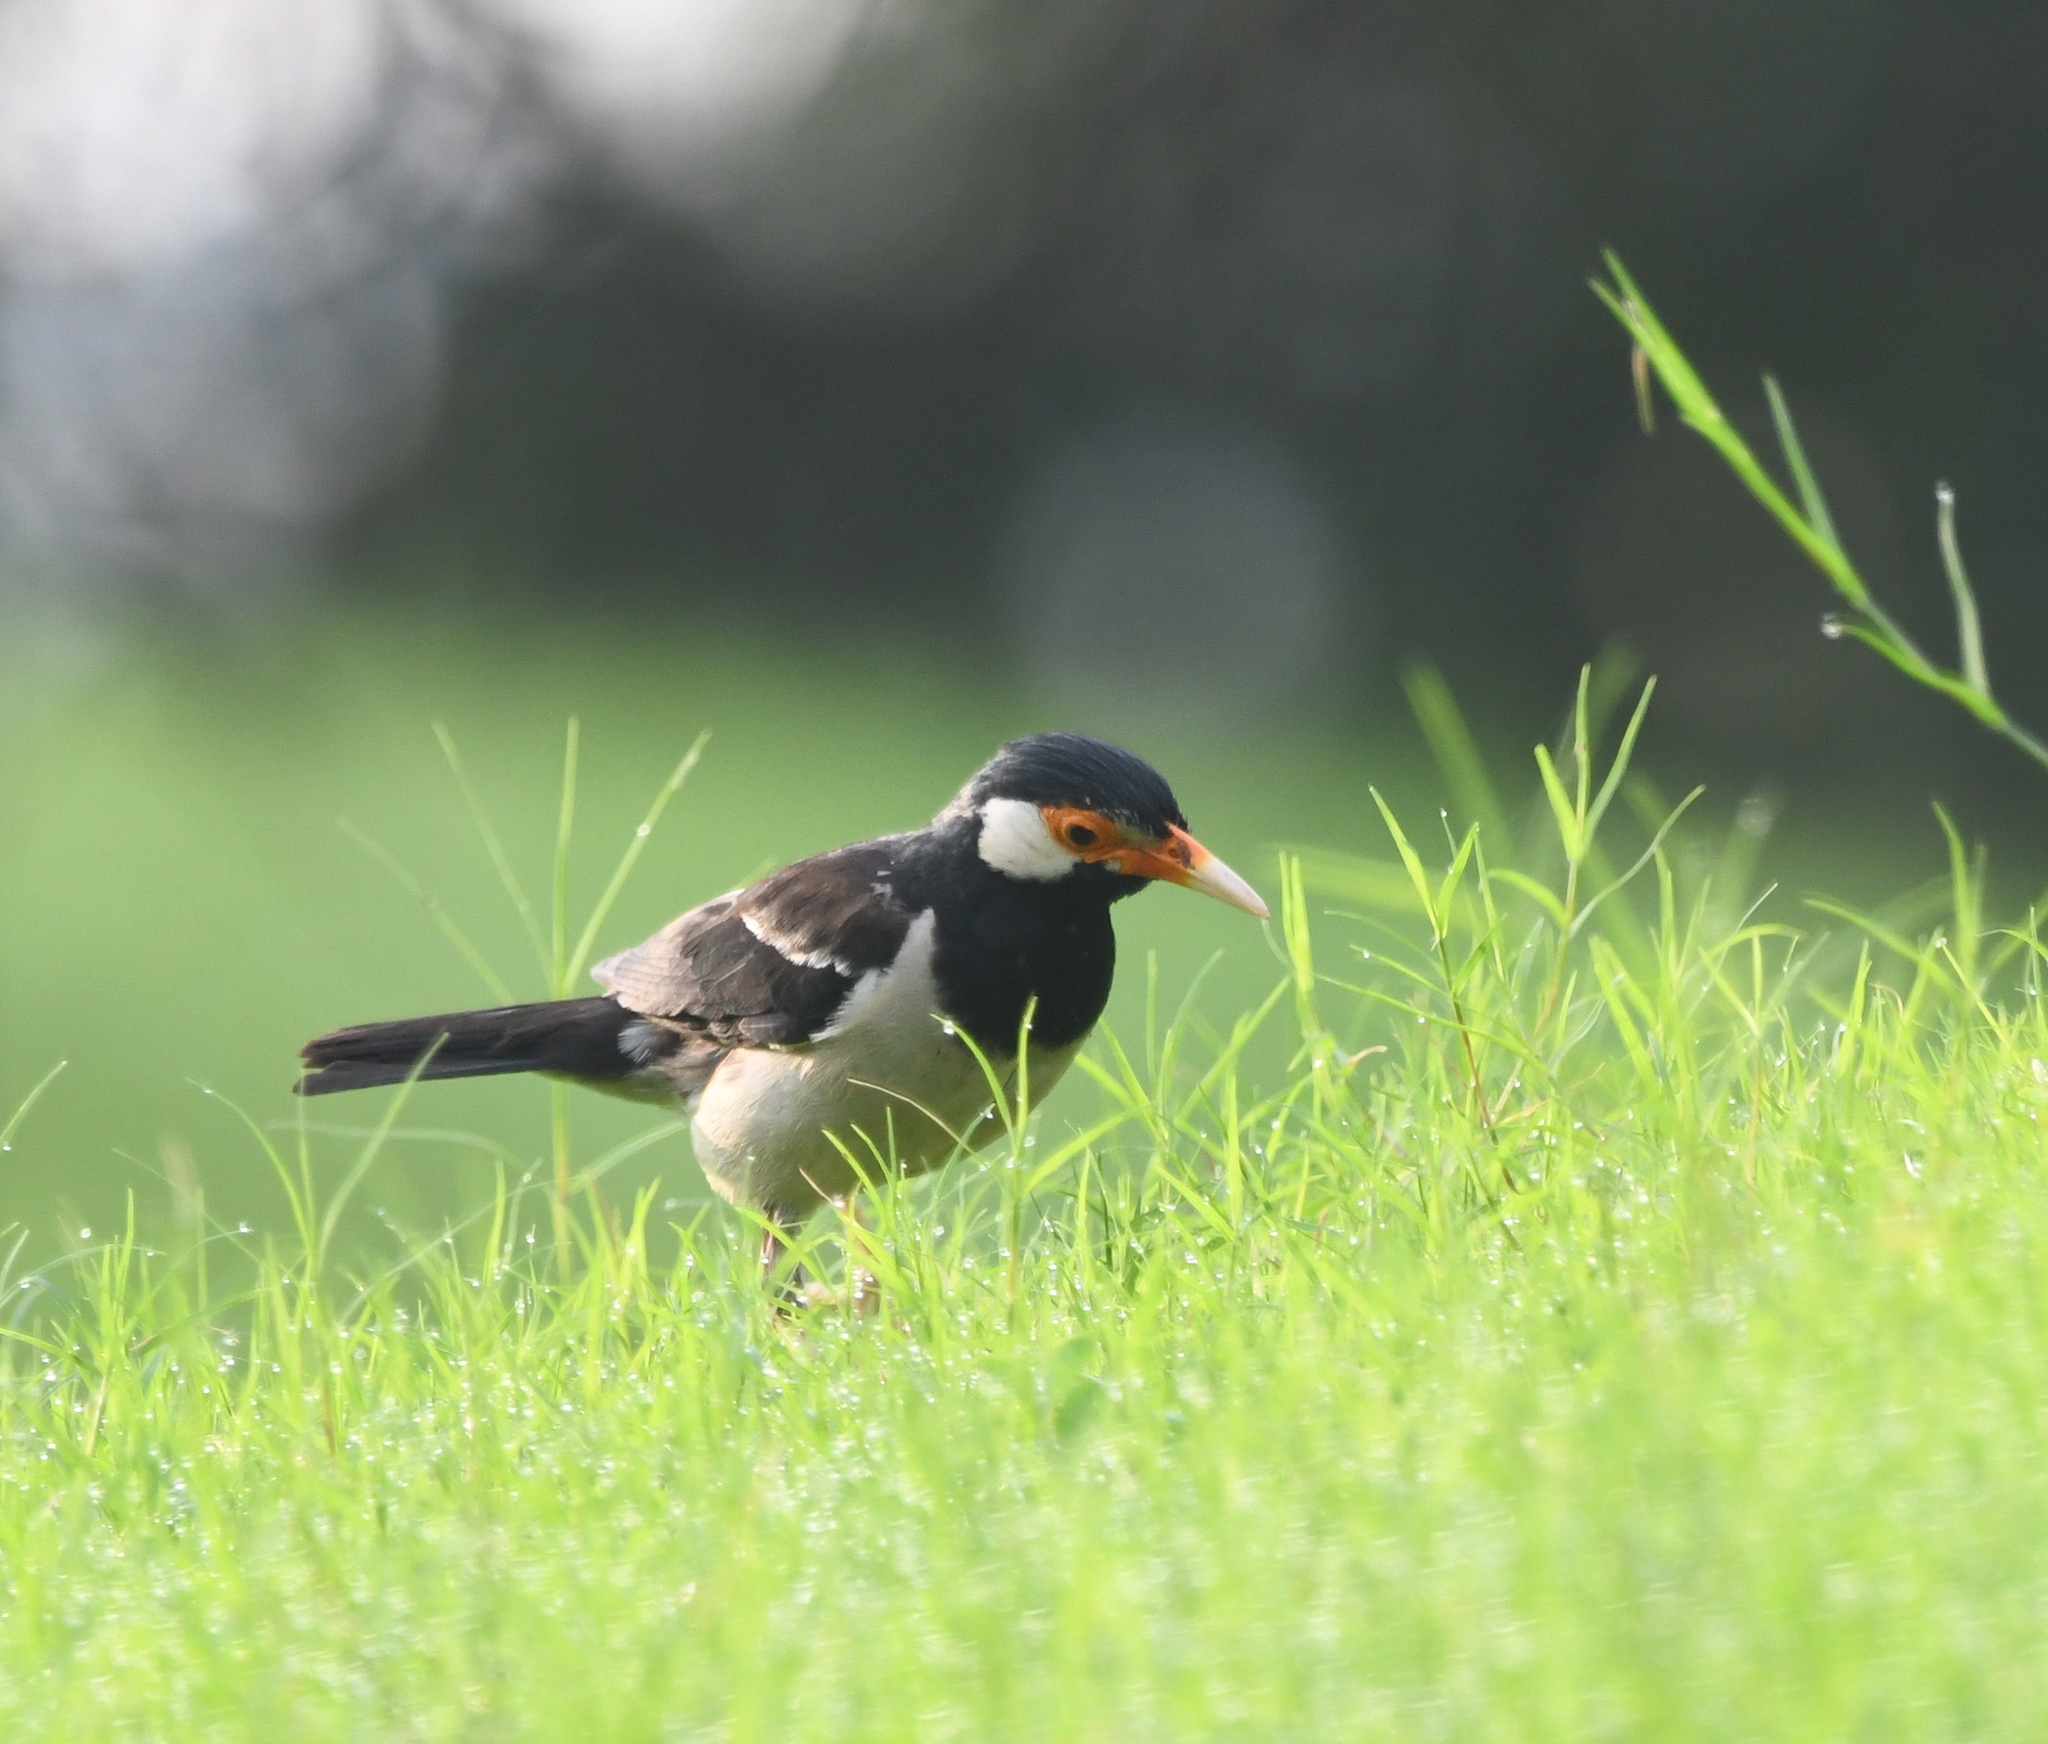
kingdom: Animalia
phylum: Chordata
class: Aves
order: Passeriformes
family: Sturnidae
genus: Gracupica
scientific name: Gracupica contra
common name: Pied myna
